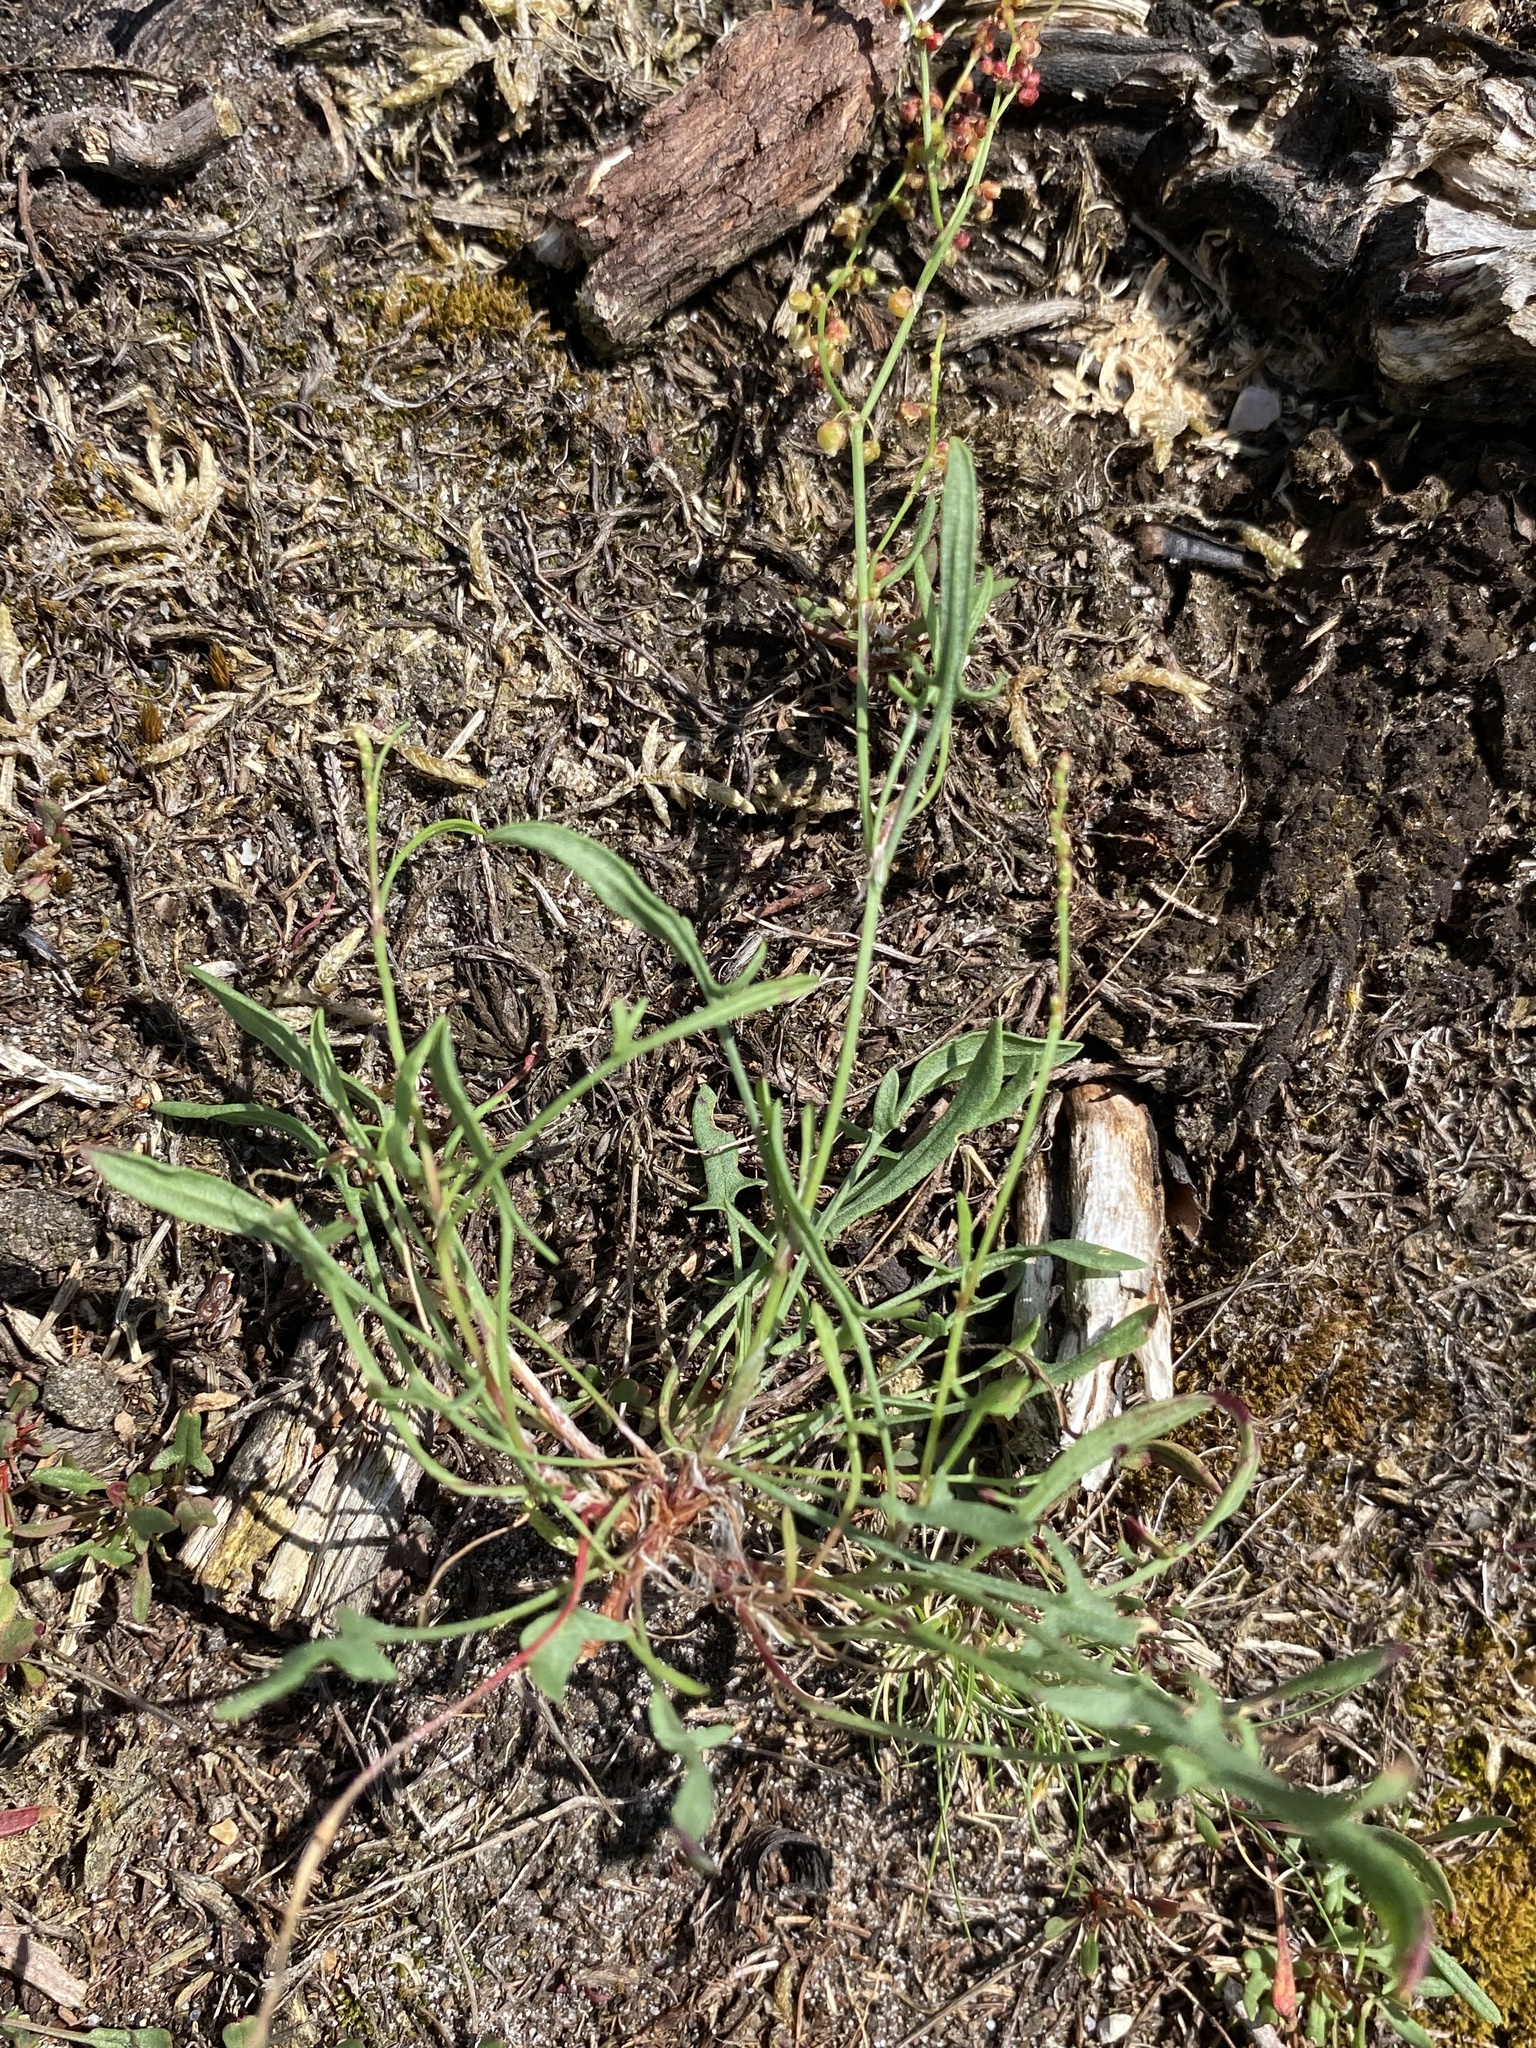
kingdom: Plantae
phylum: Tracheophyta
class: Magnoliopsida
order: Caryophyllales
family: Polygonaceae
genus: Rumex
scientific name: Rumex acetosella
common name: Common sheep sorrel
